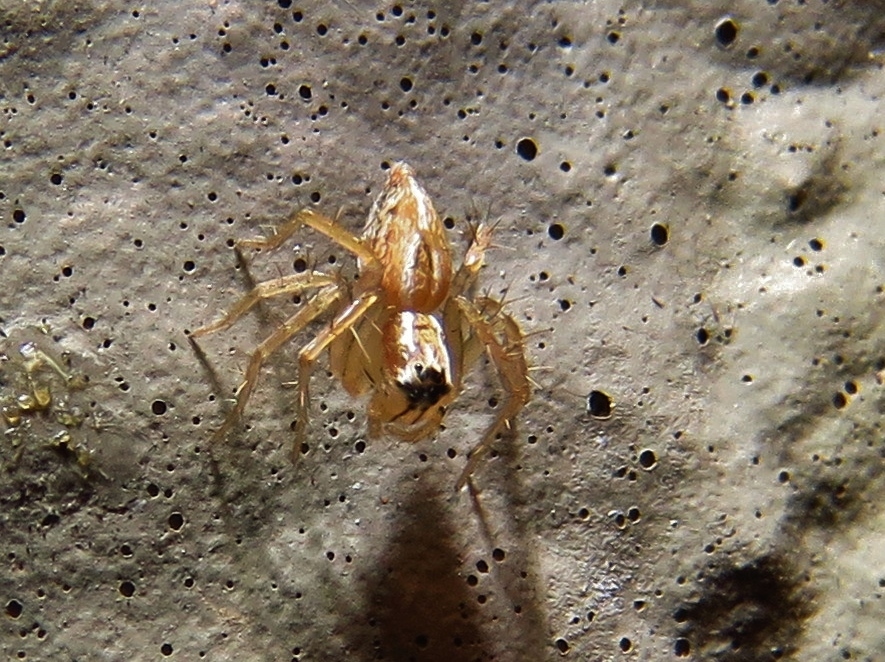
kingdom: Animalia
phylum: Arthropoda
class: Arachnida
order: Araneae
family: Oxyopidae
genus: Oxyopes
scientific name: Oxyopes salticus
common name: Lynx spiders
